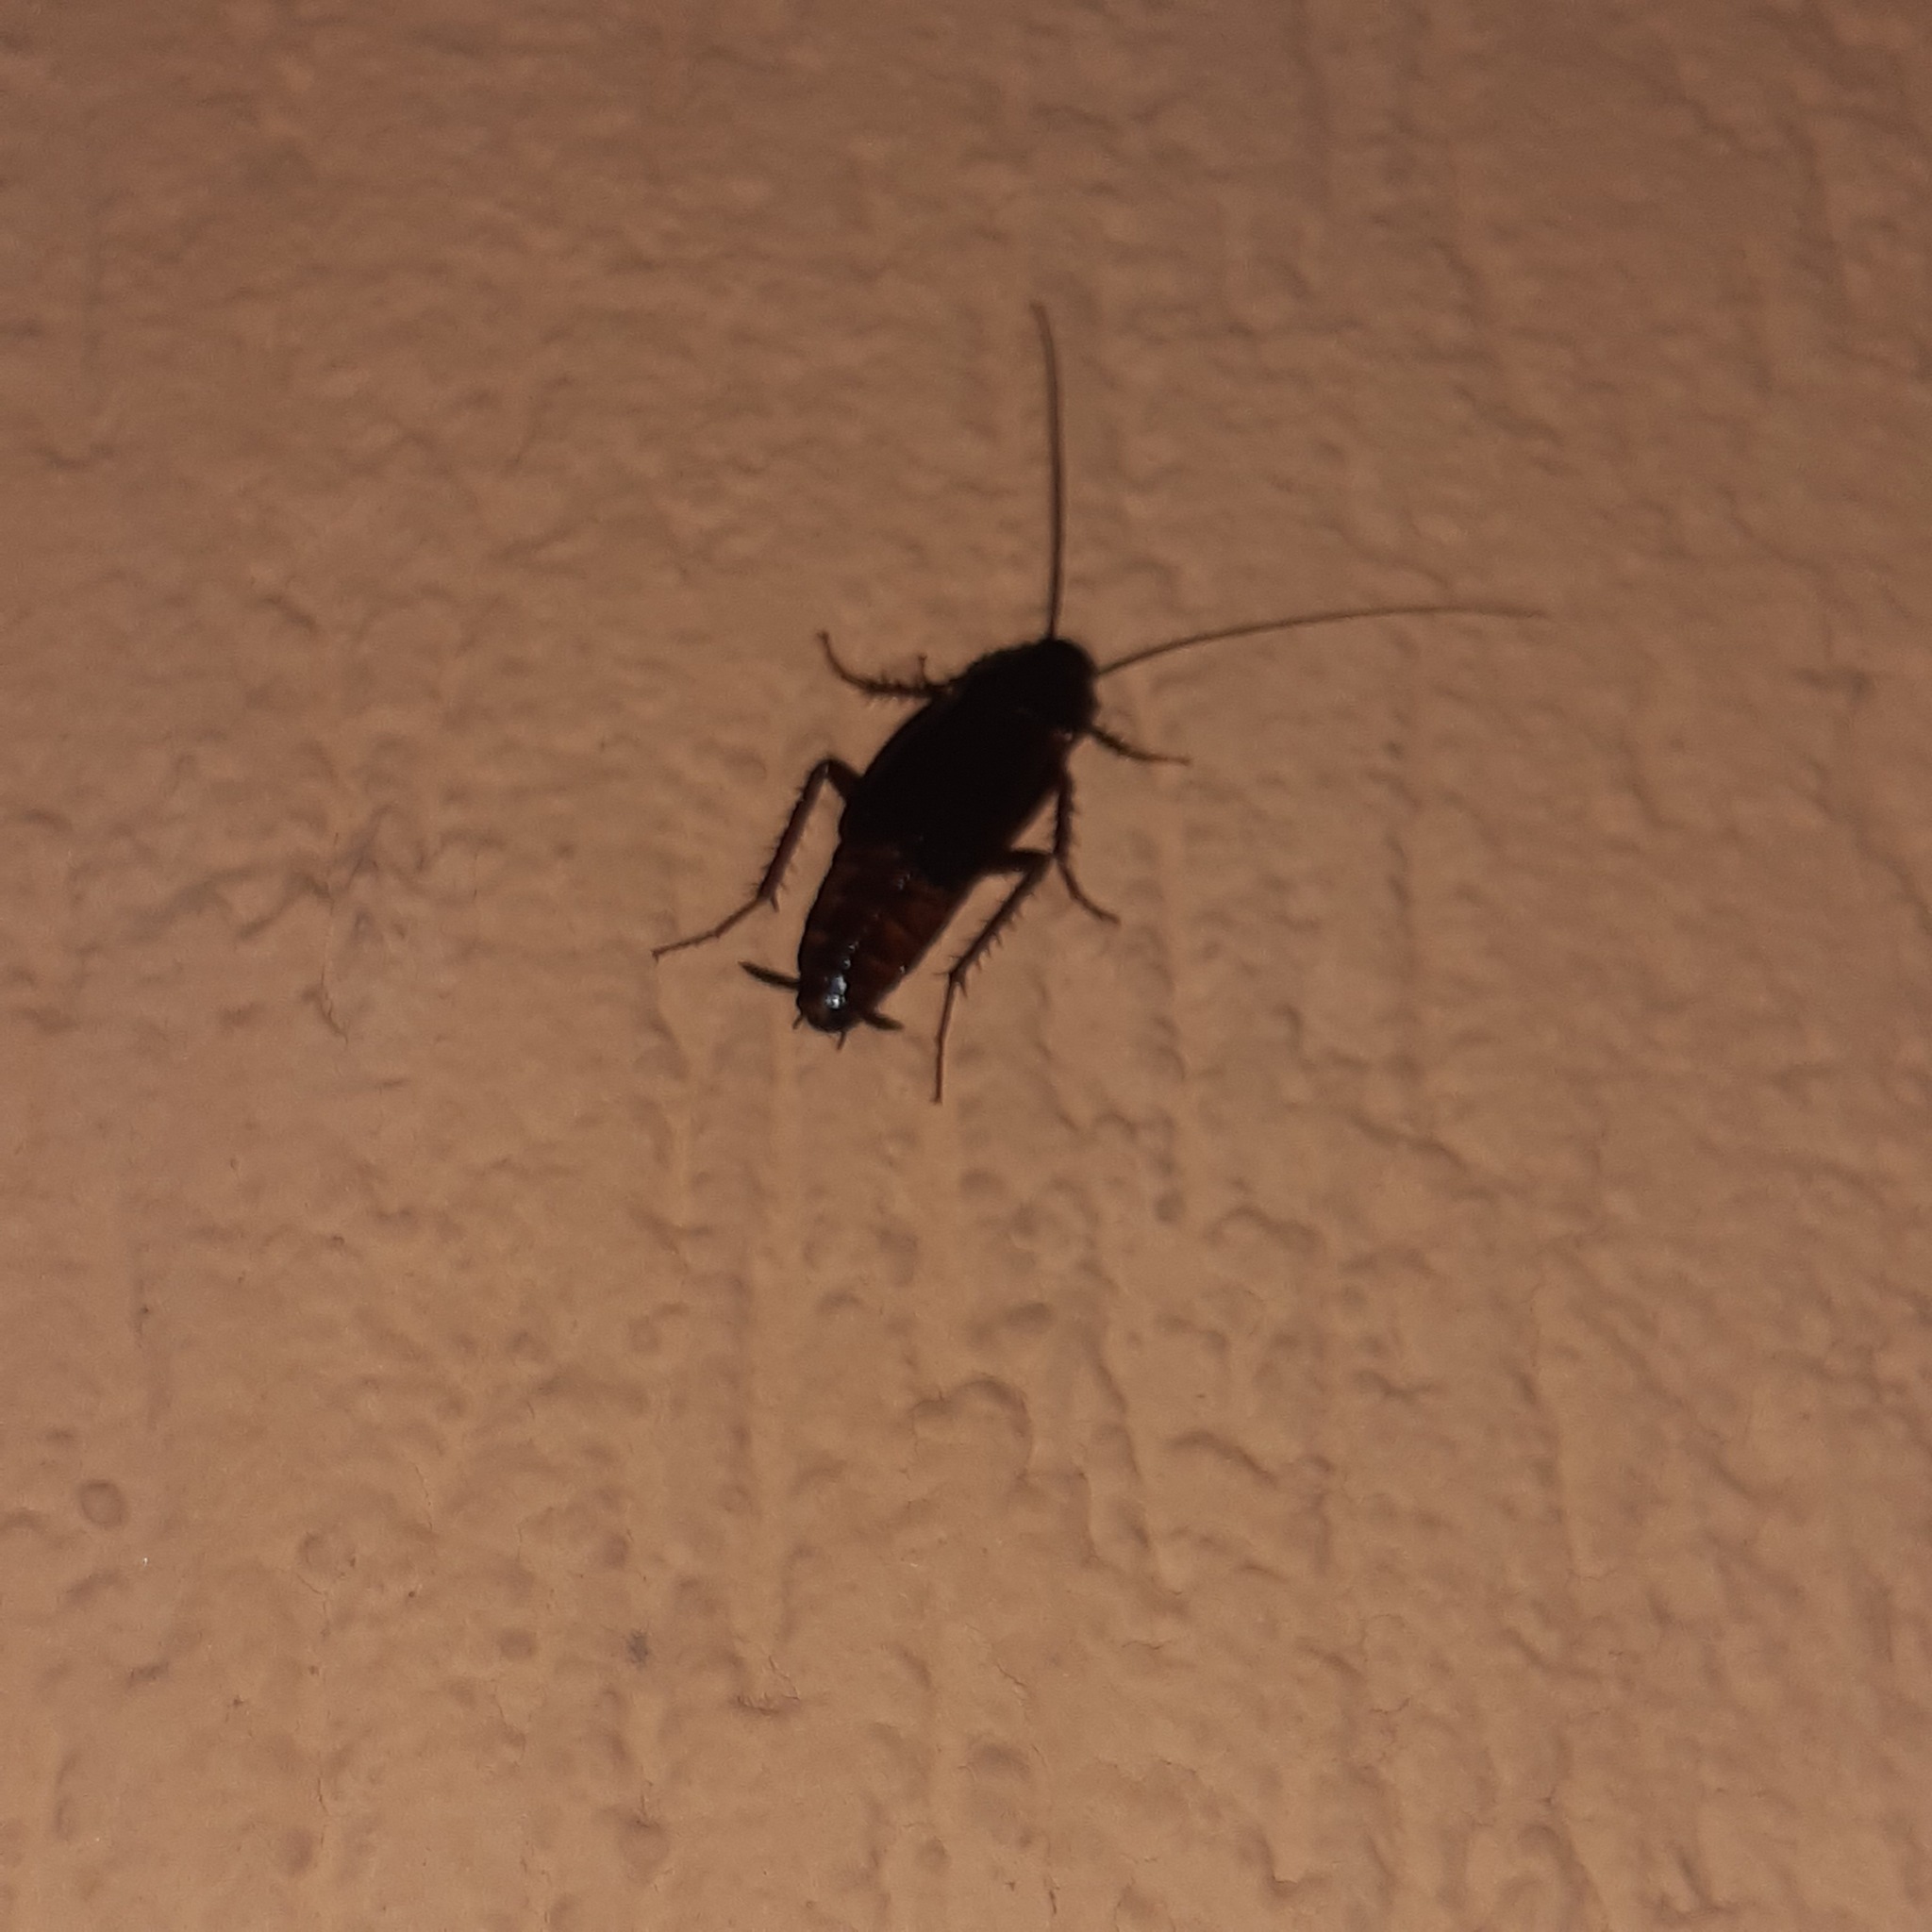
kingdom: Animalia
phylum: Arthropoda
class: Insecta
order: Blattodea
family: Blattidae
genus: Blatta
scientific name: Blatta orientalis
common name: Oriental cockroach
